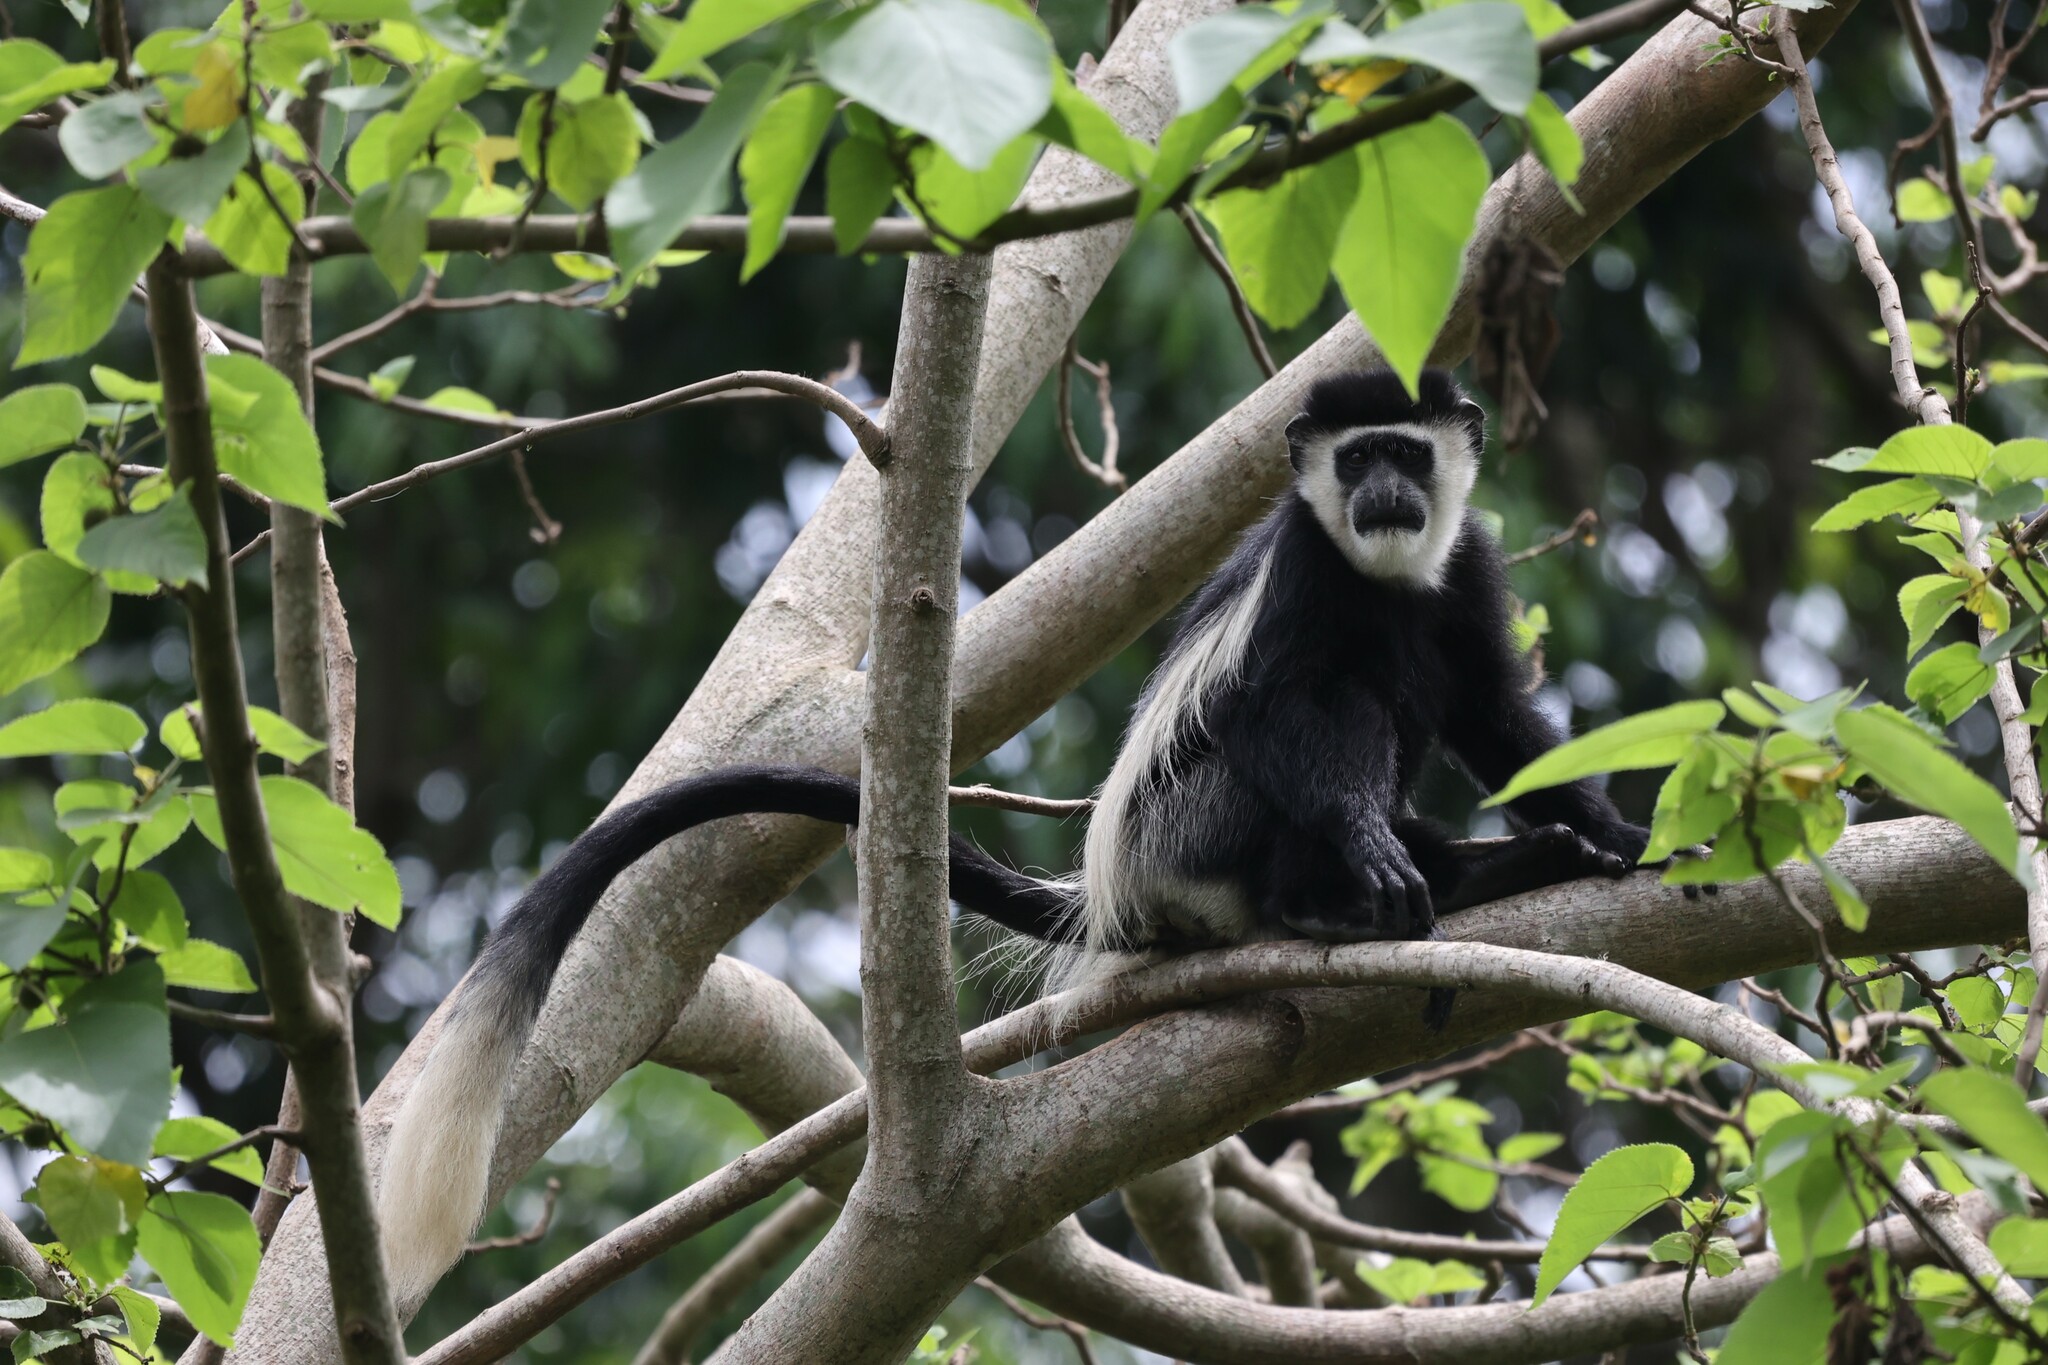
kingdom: Animalia
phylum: Chordata
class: Mammalia
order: Primates
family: Cercopithecidae
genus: Colobus
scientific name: Colobus guereza
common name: Mantled guereza
